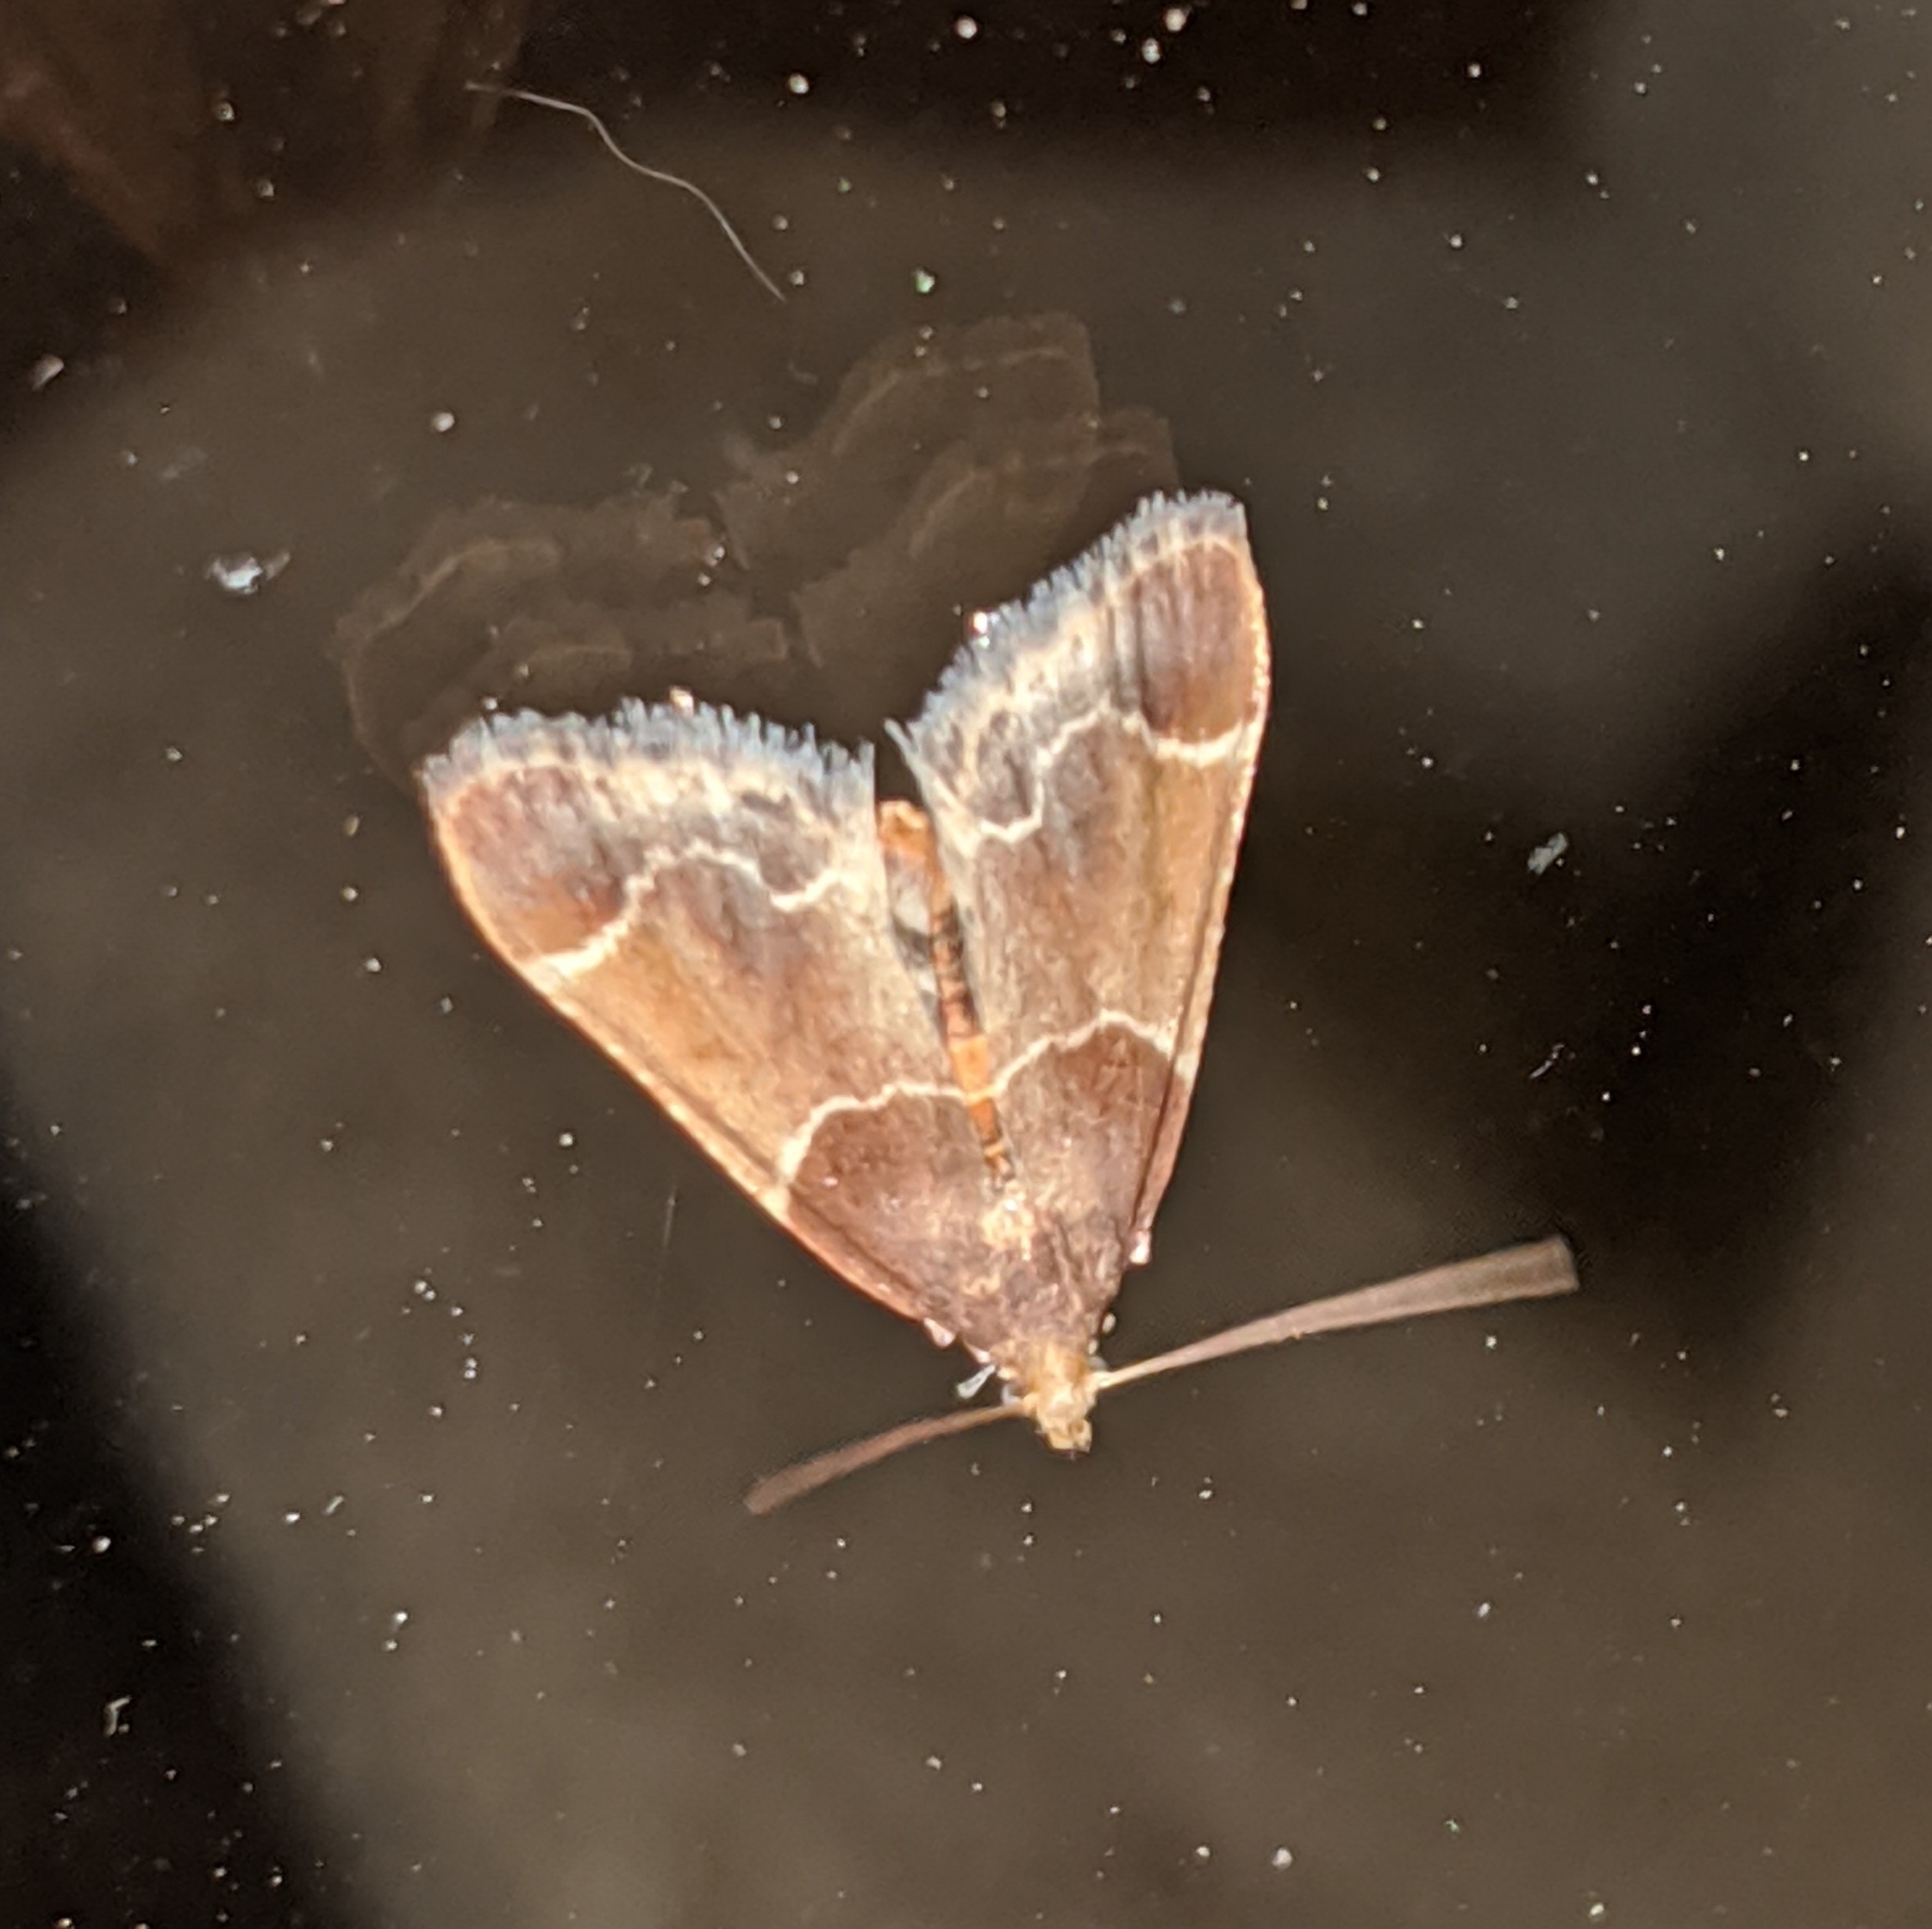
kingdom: Animalia
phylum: Arthropoda
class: Insecta
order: Lepidoptera
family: Pyralidae
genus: Pyralis
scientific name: Pyralis farinalis
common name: Meal moth
